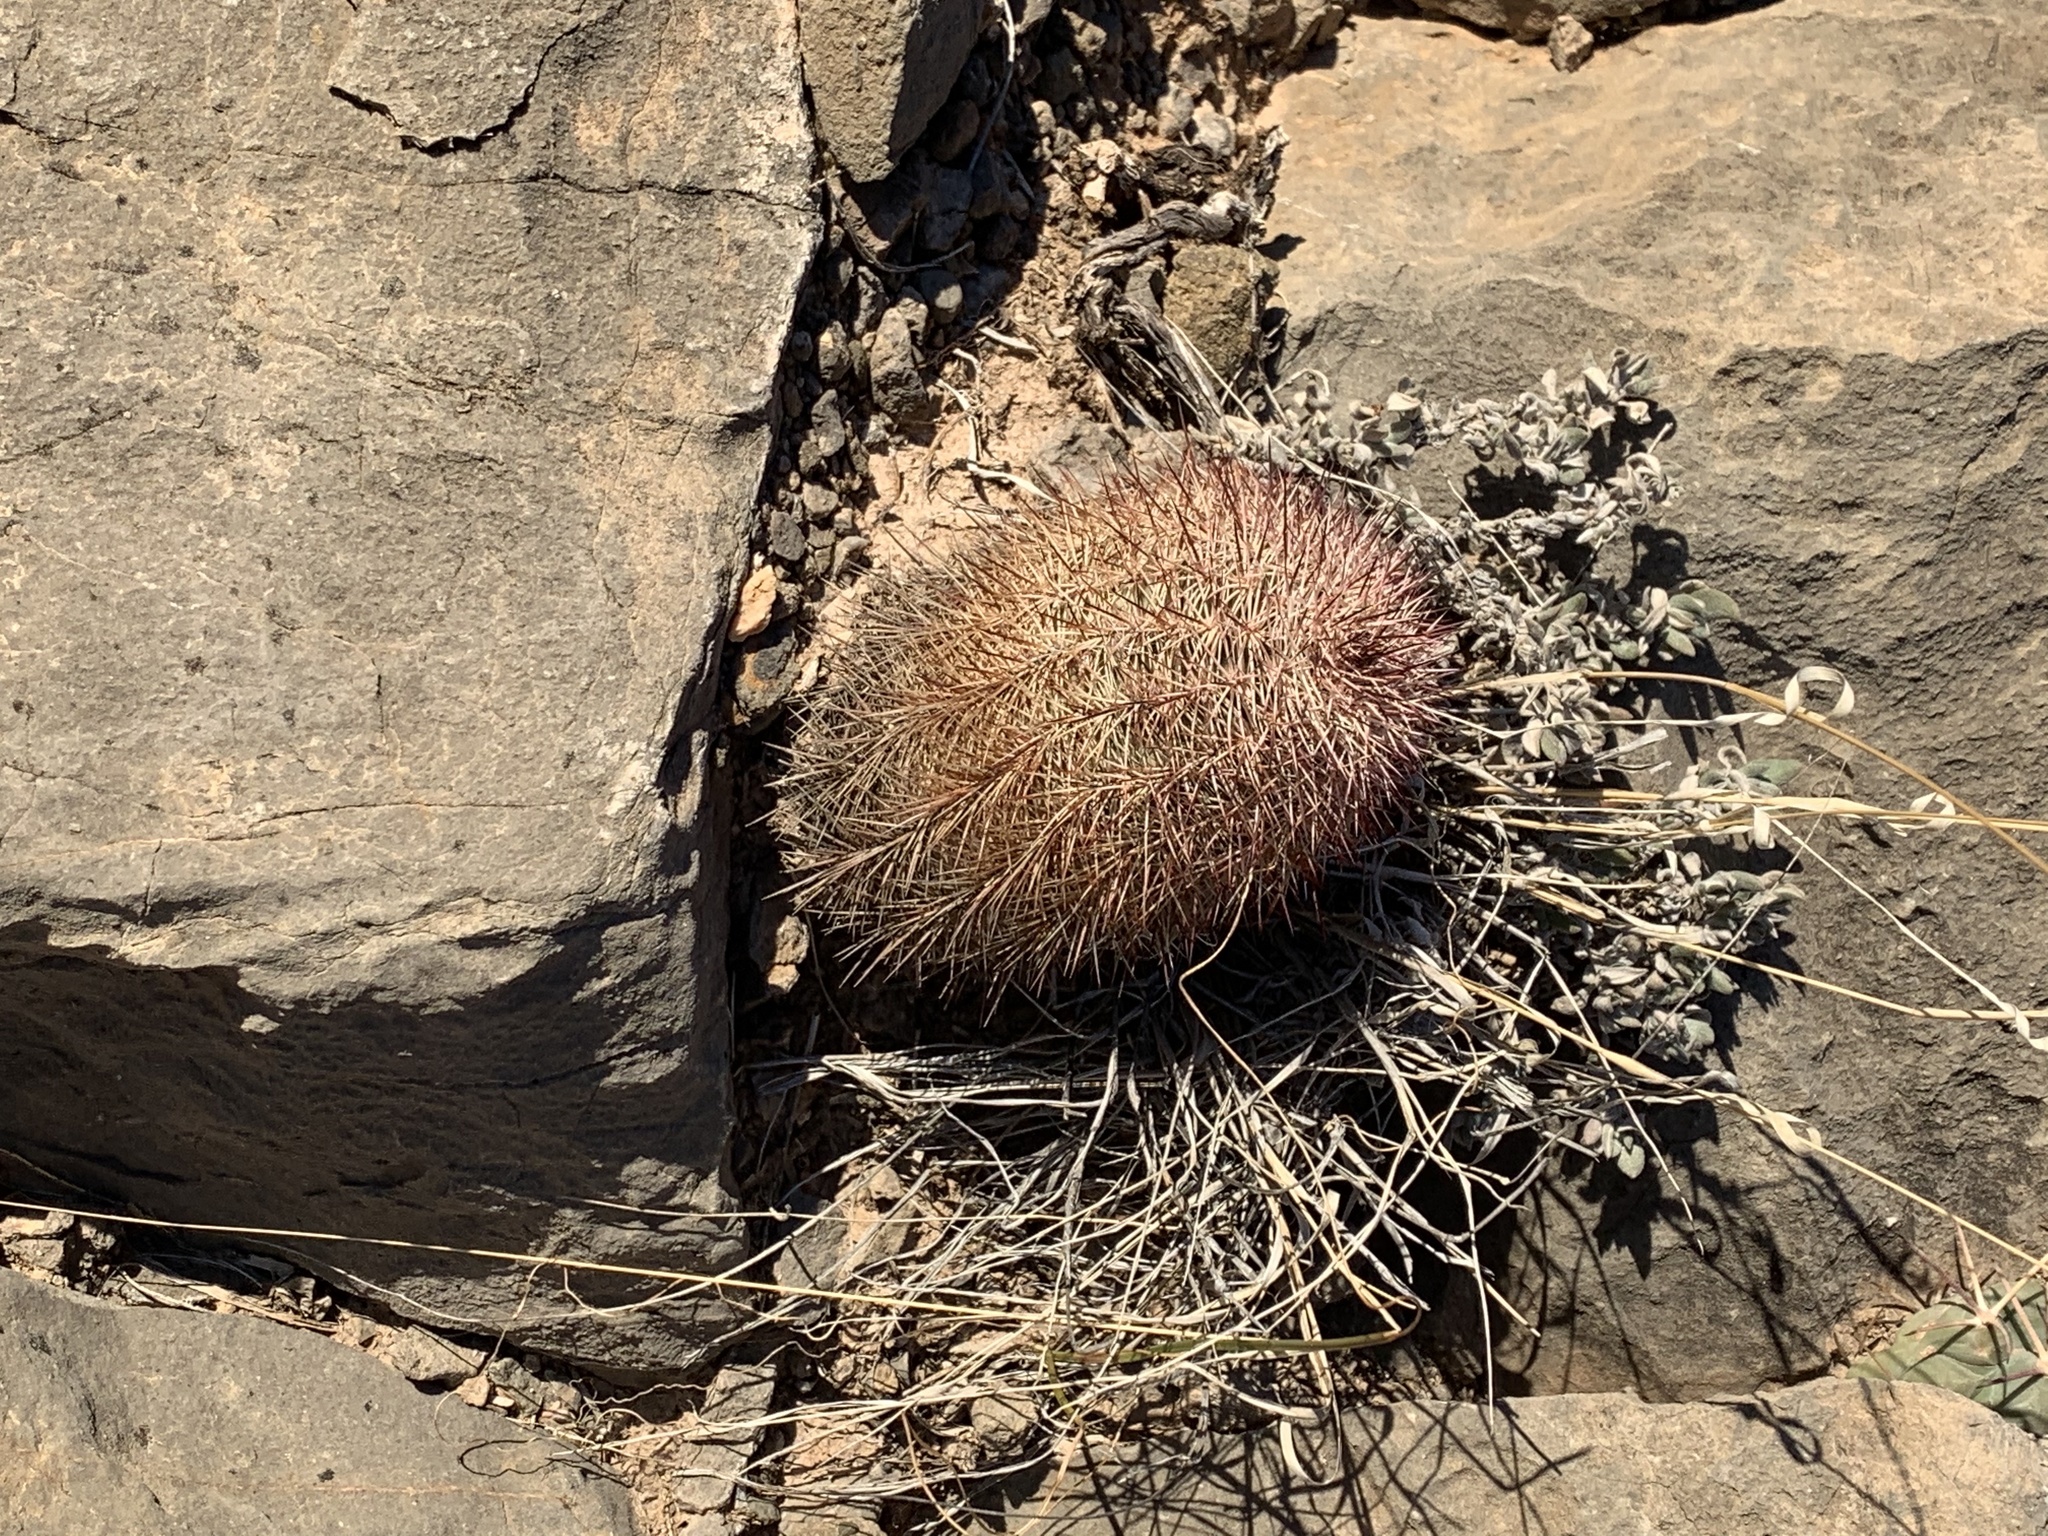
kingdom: Plantae
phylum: Tracheophyta
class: Magnoliopsida
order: Caryophyllales
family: Cactaceae
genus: Echinocereus
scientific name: Echinocereus dasyacanthus
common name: Spiny hedgehog cactus
